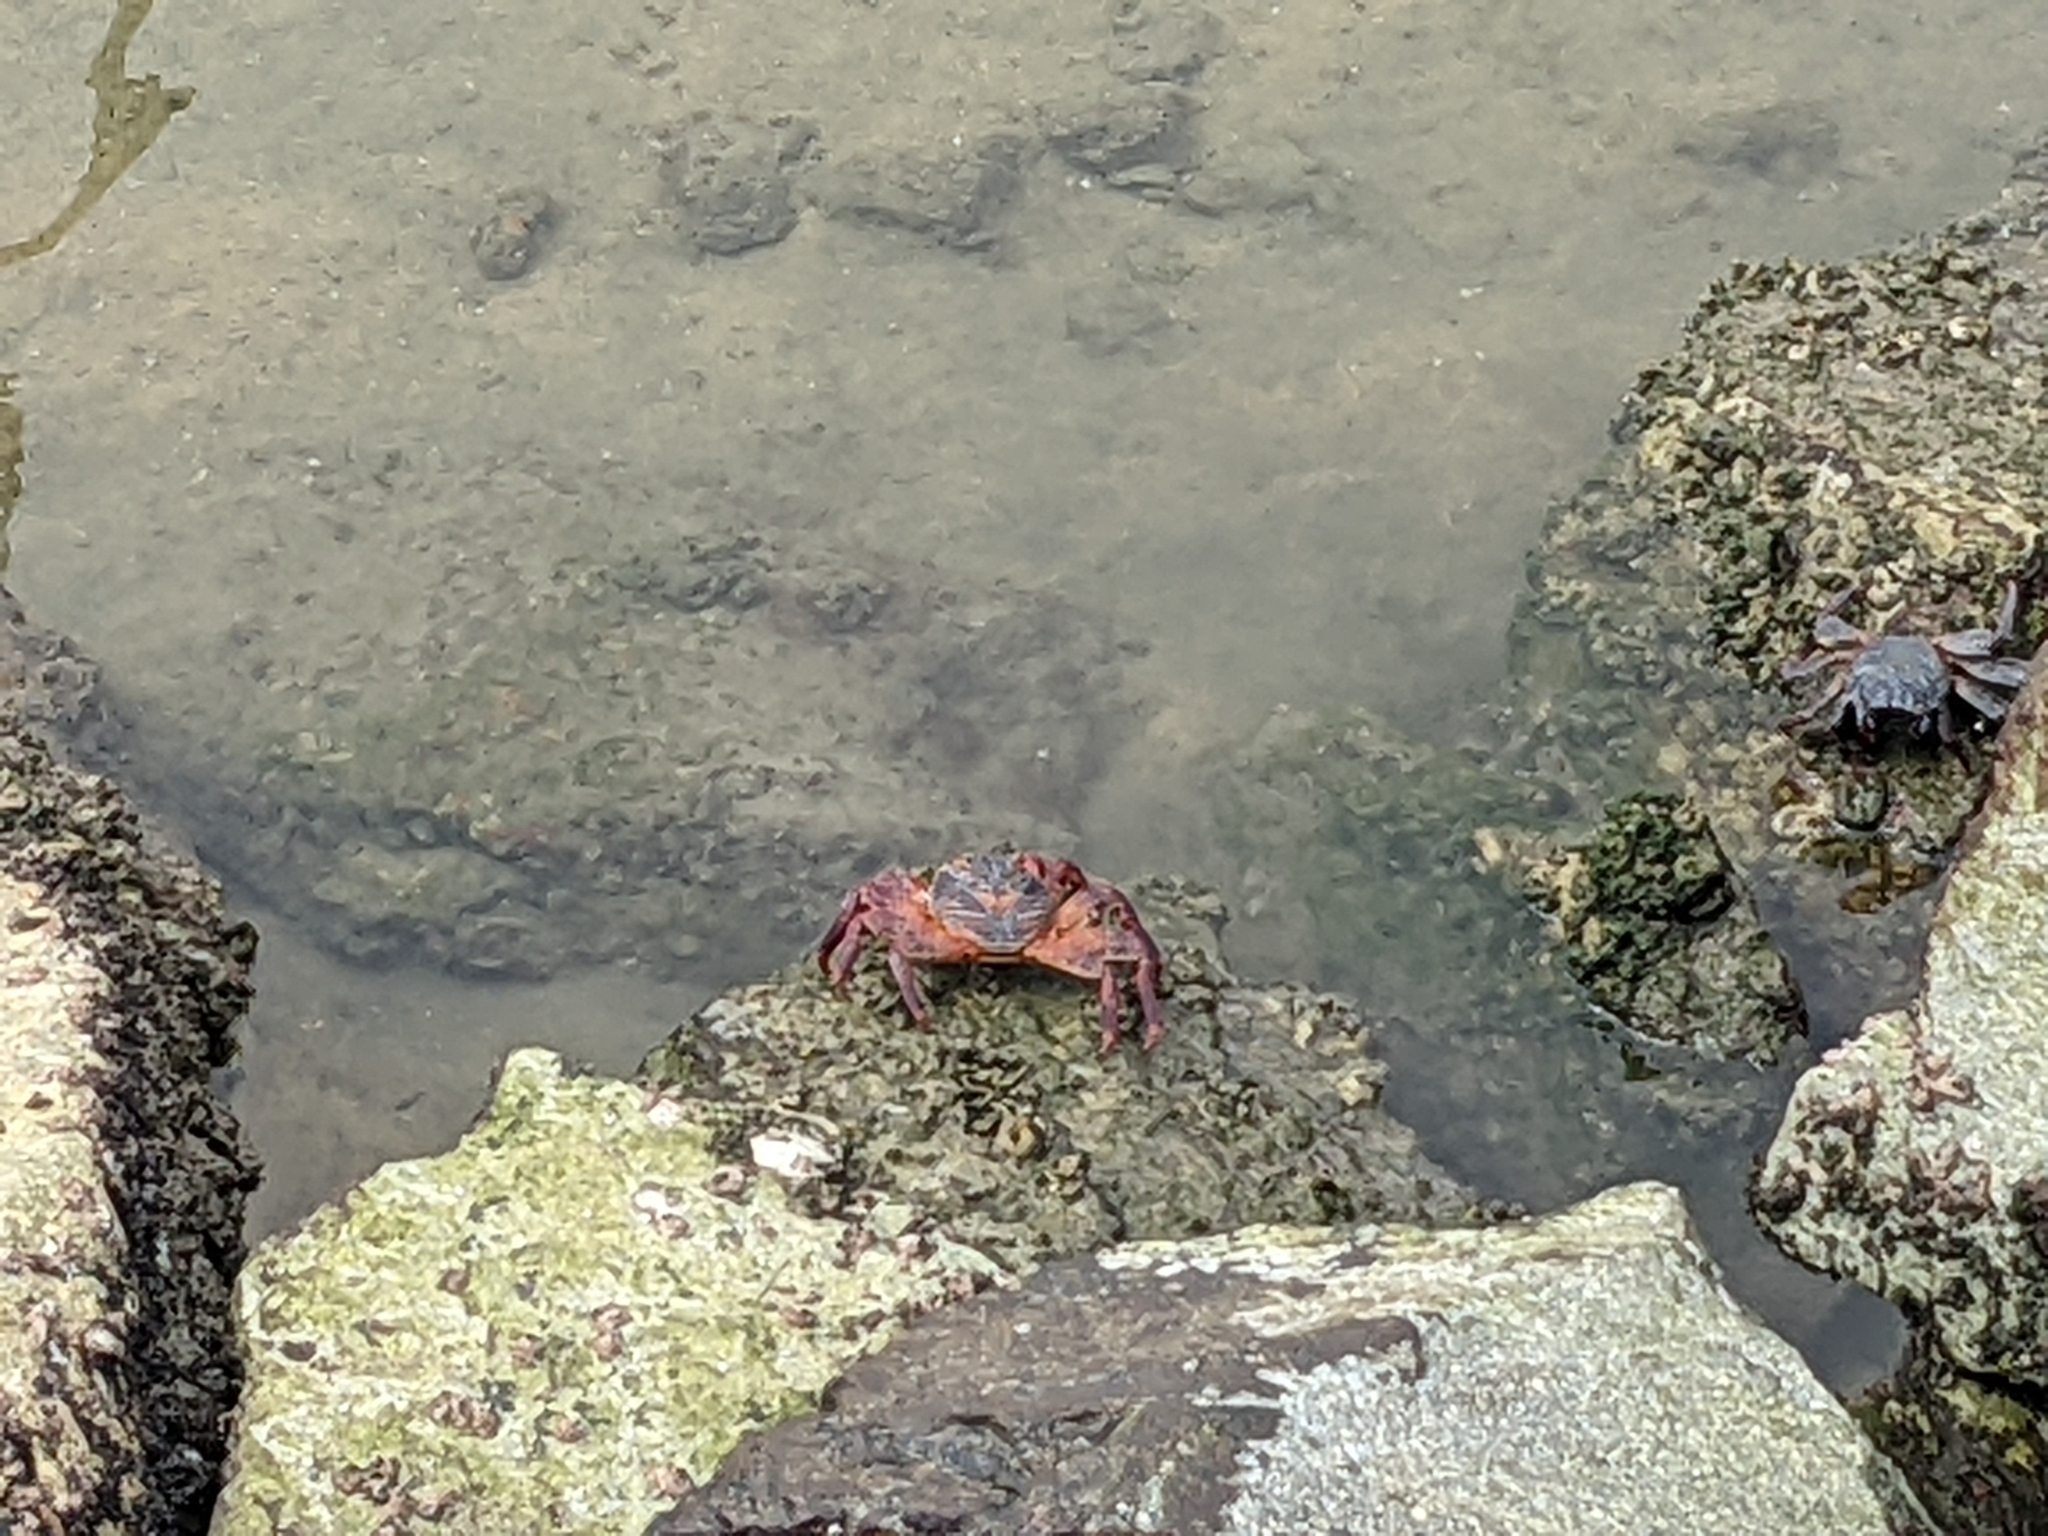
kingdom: Animalia
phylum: Arthropoda
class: Malacostraca
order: Decapoda
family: Grapsidae
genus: Grapsus
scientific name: Grapsus grapsus
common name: Sally lightfoot
